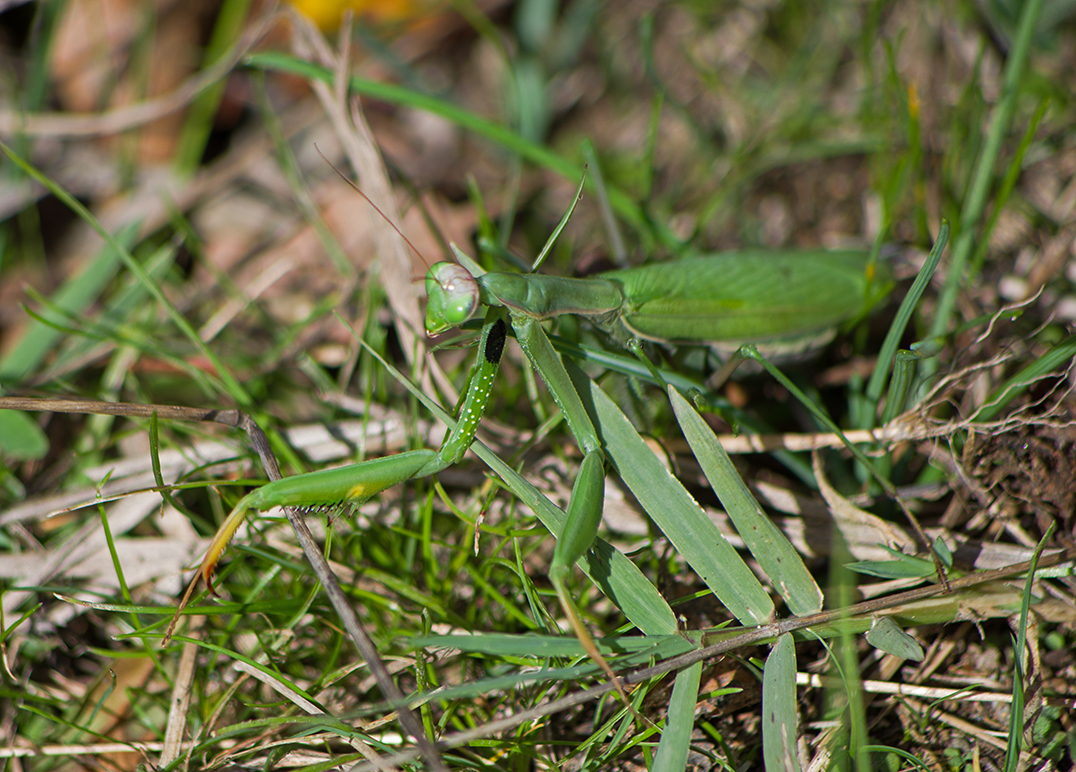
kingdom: Animalia
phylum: Arthropoda
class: Insecta
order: Mantodea
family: Mantidae
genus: Mantis
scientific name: Mantis religiosa
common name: Praying mantis
